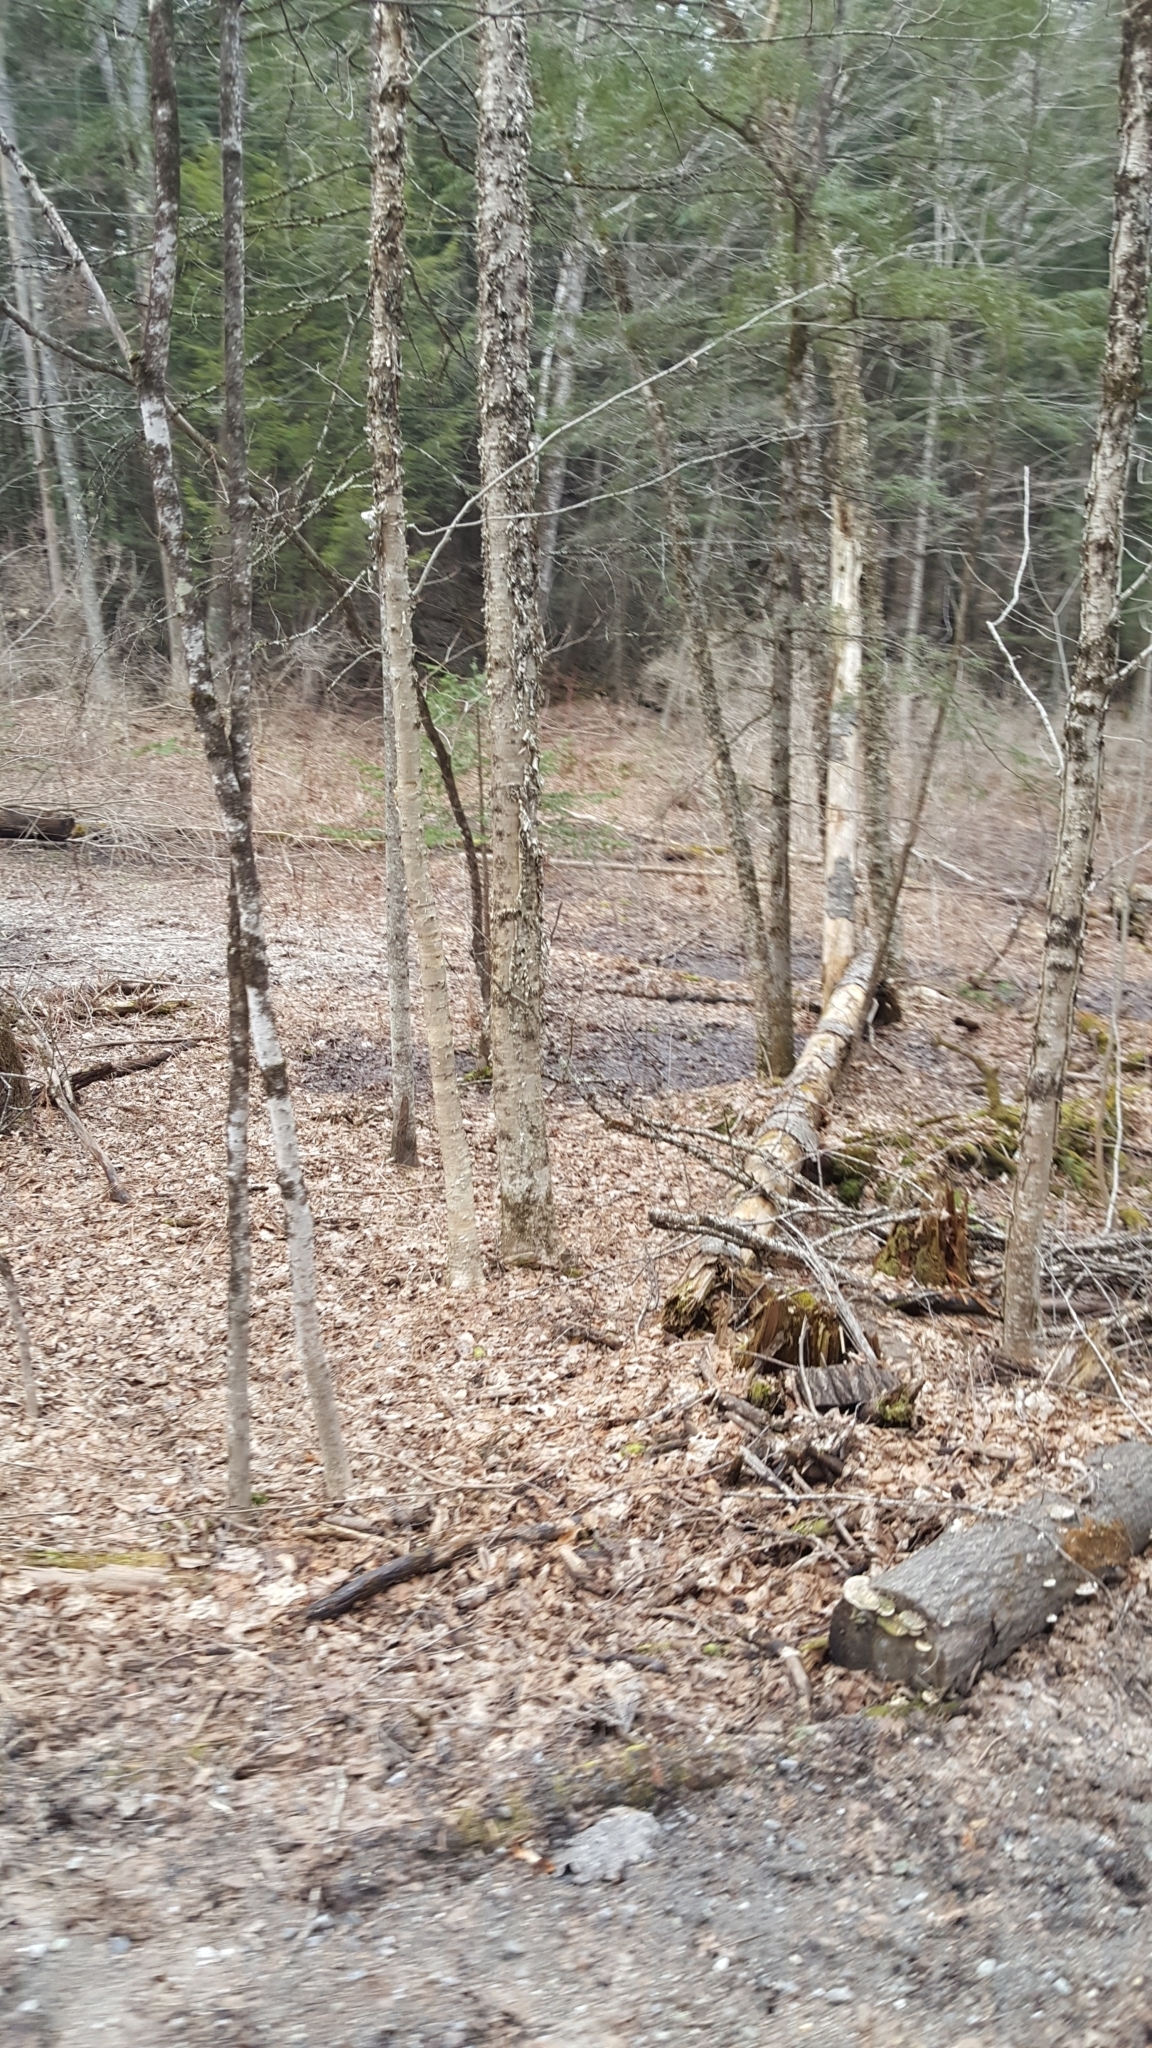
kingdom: Plantae
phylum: Tracheophyta
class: Magnoliopsida
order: Fagales
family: Betulaceae
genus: Betula
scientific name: Betula alleghaniensis
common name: Yellow birch
